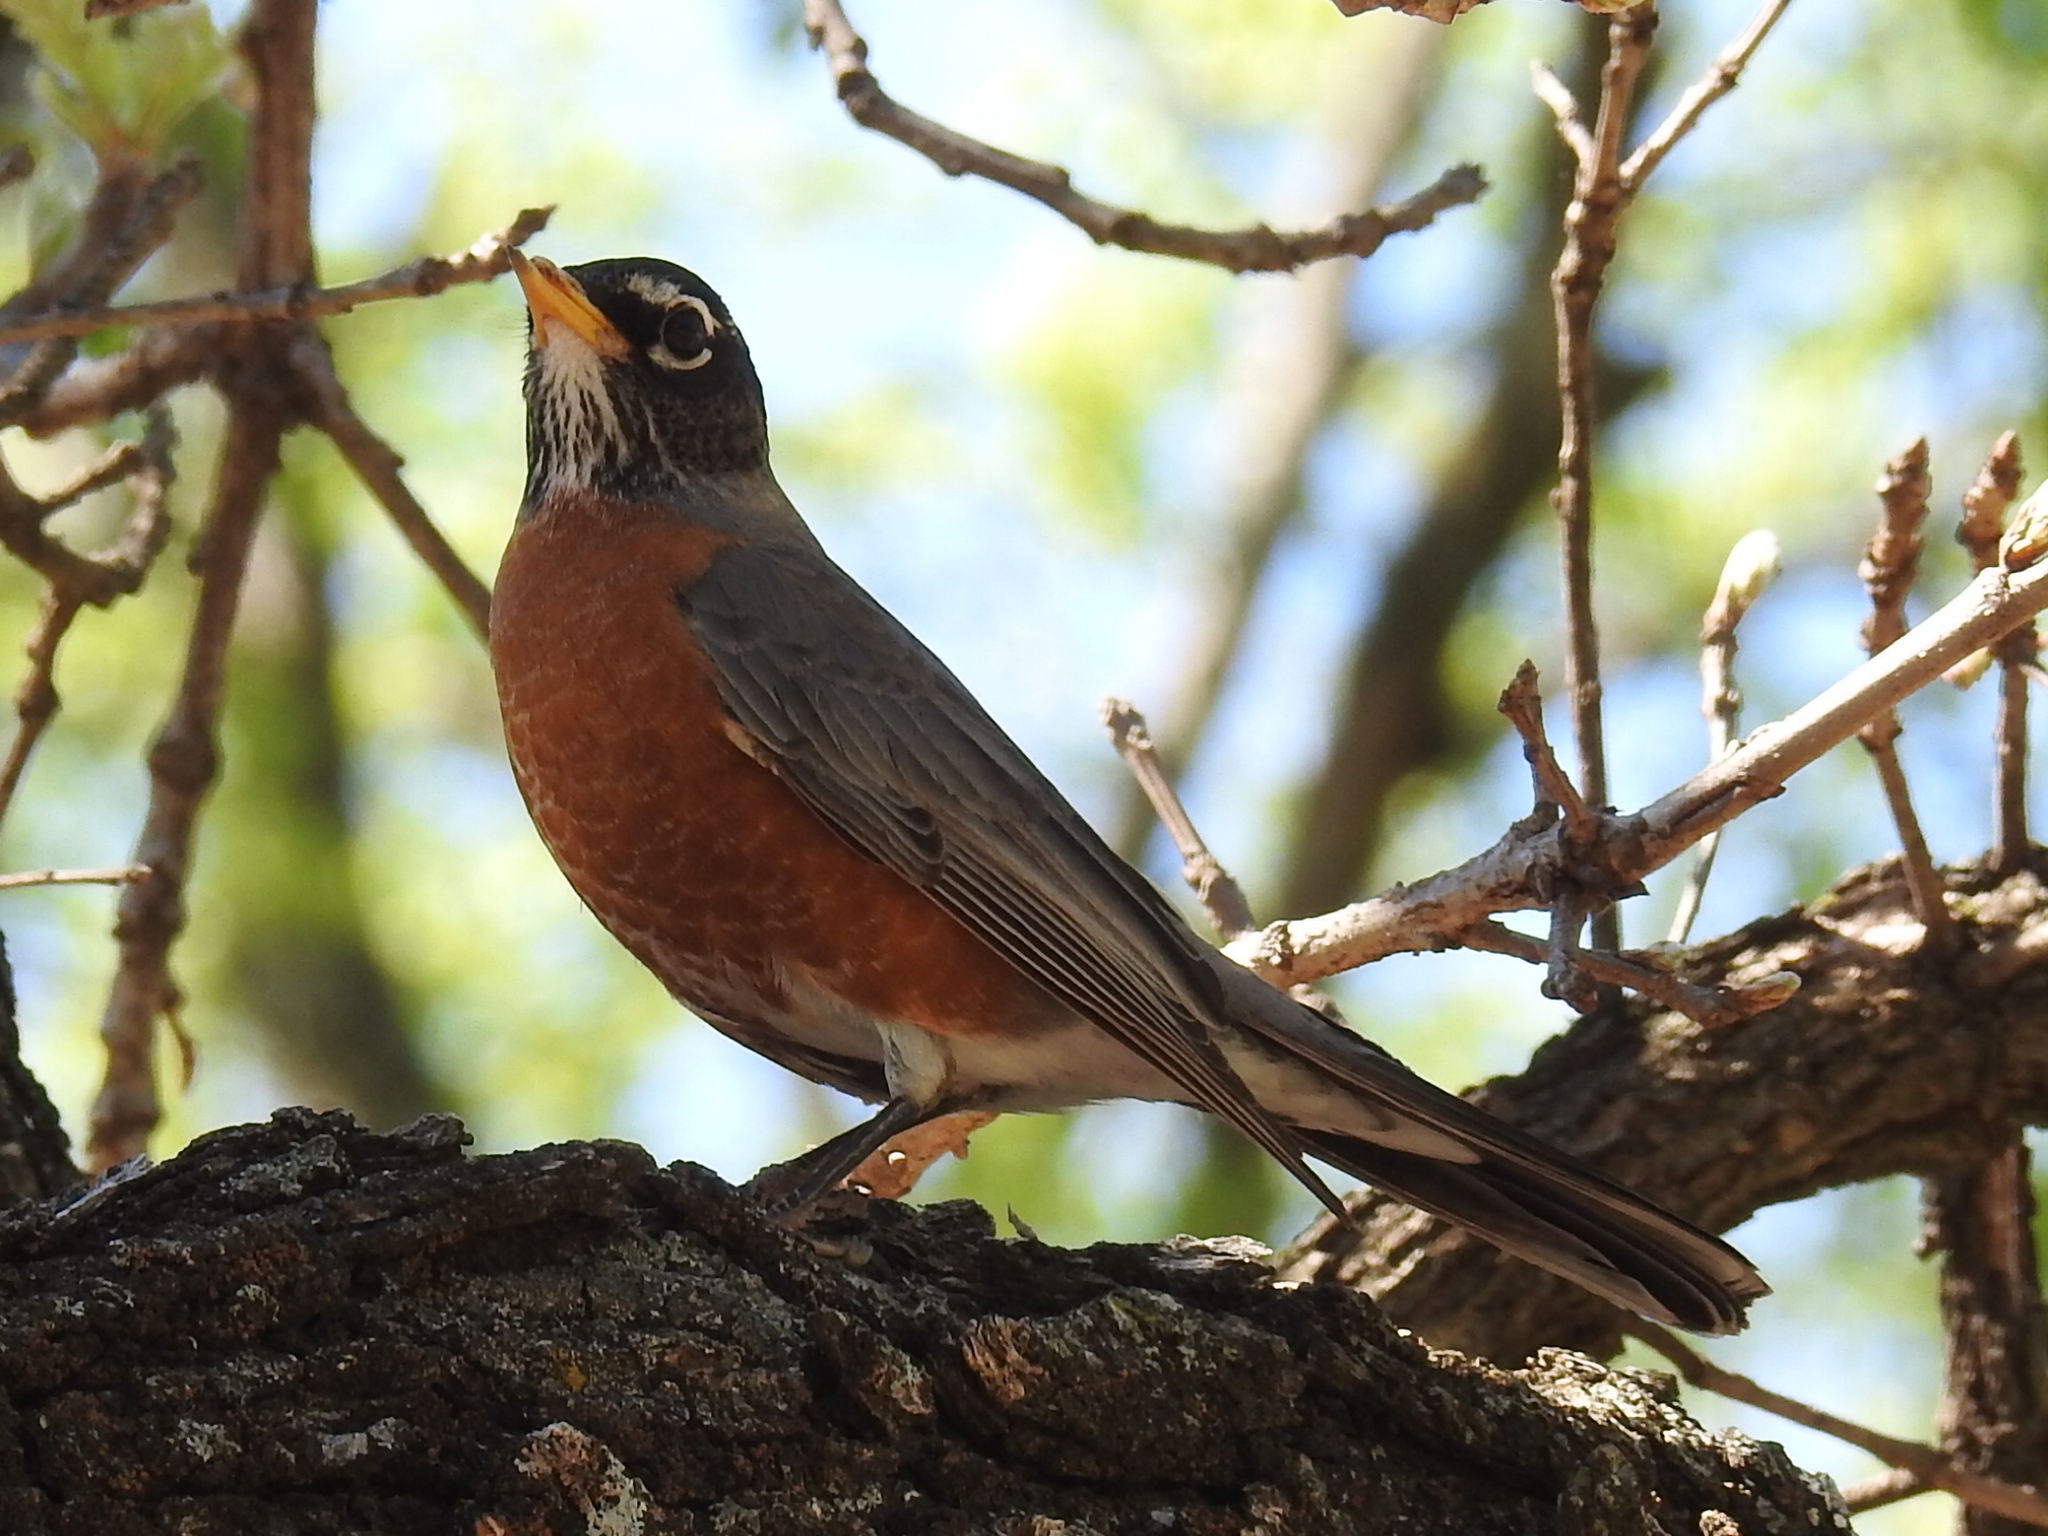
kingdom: Animalia
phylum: Chordata
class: Aves
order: Passeriformes
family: Turdidae
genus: Turdus
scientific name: Turdus migratorius
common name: American robin
